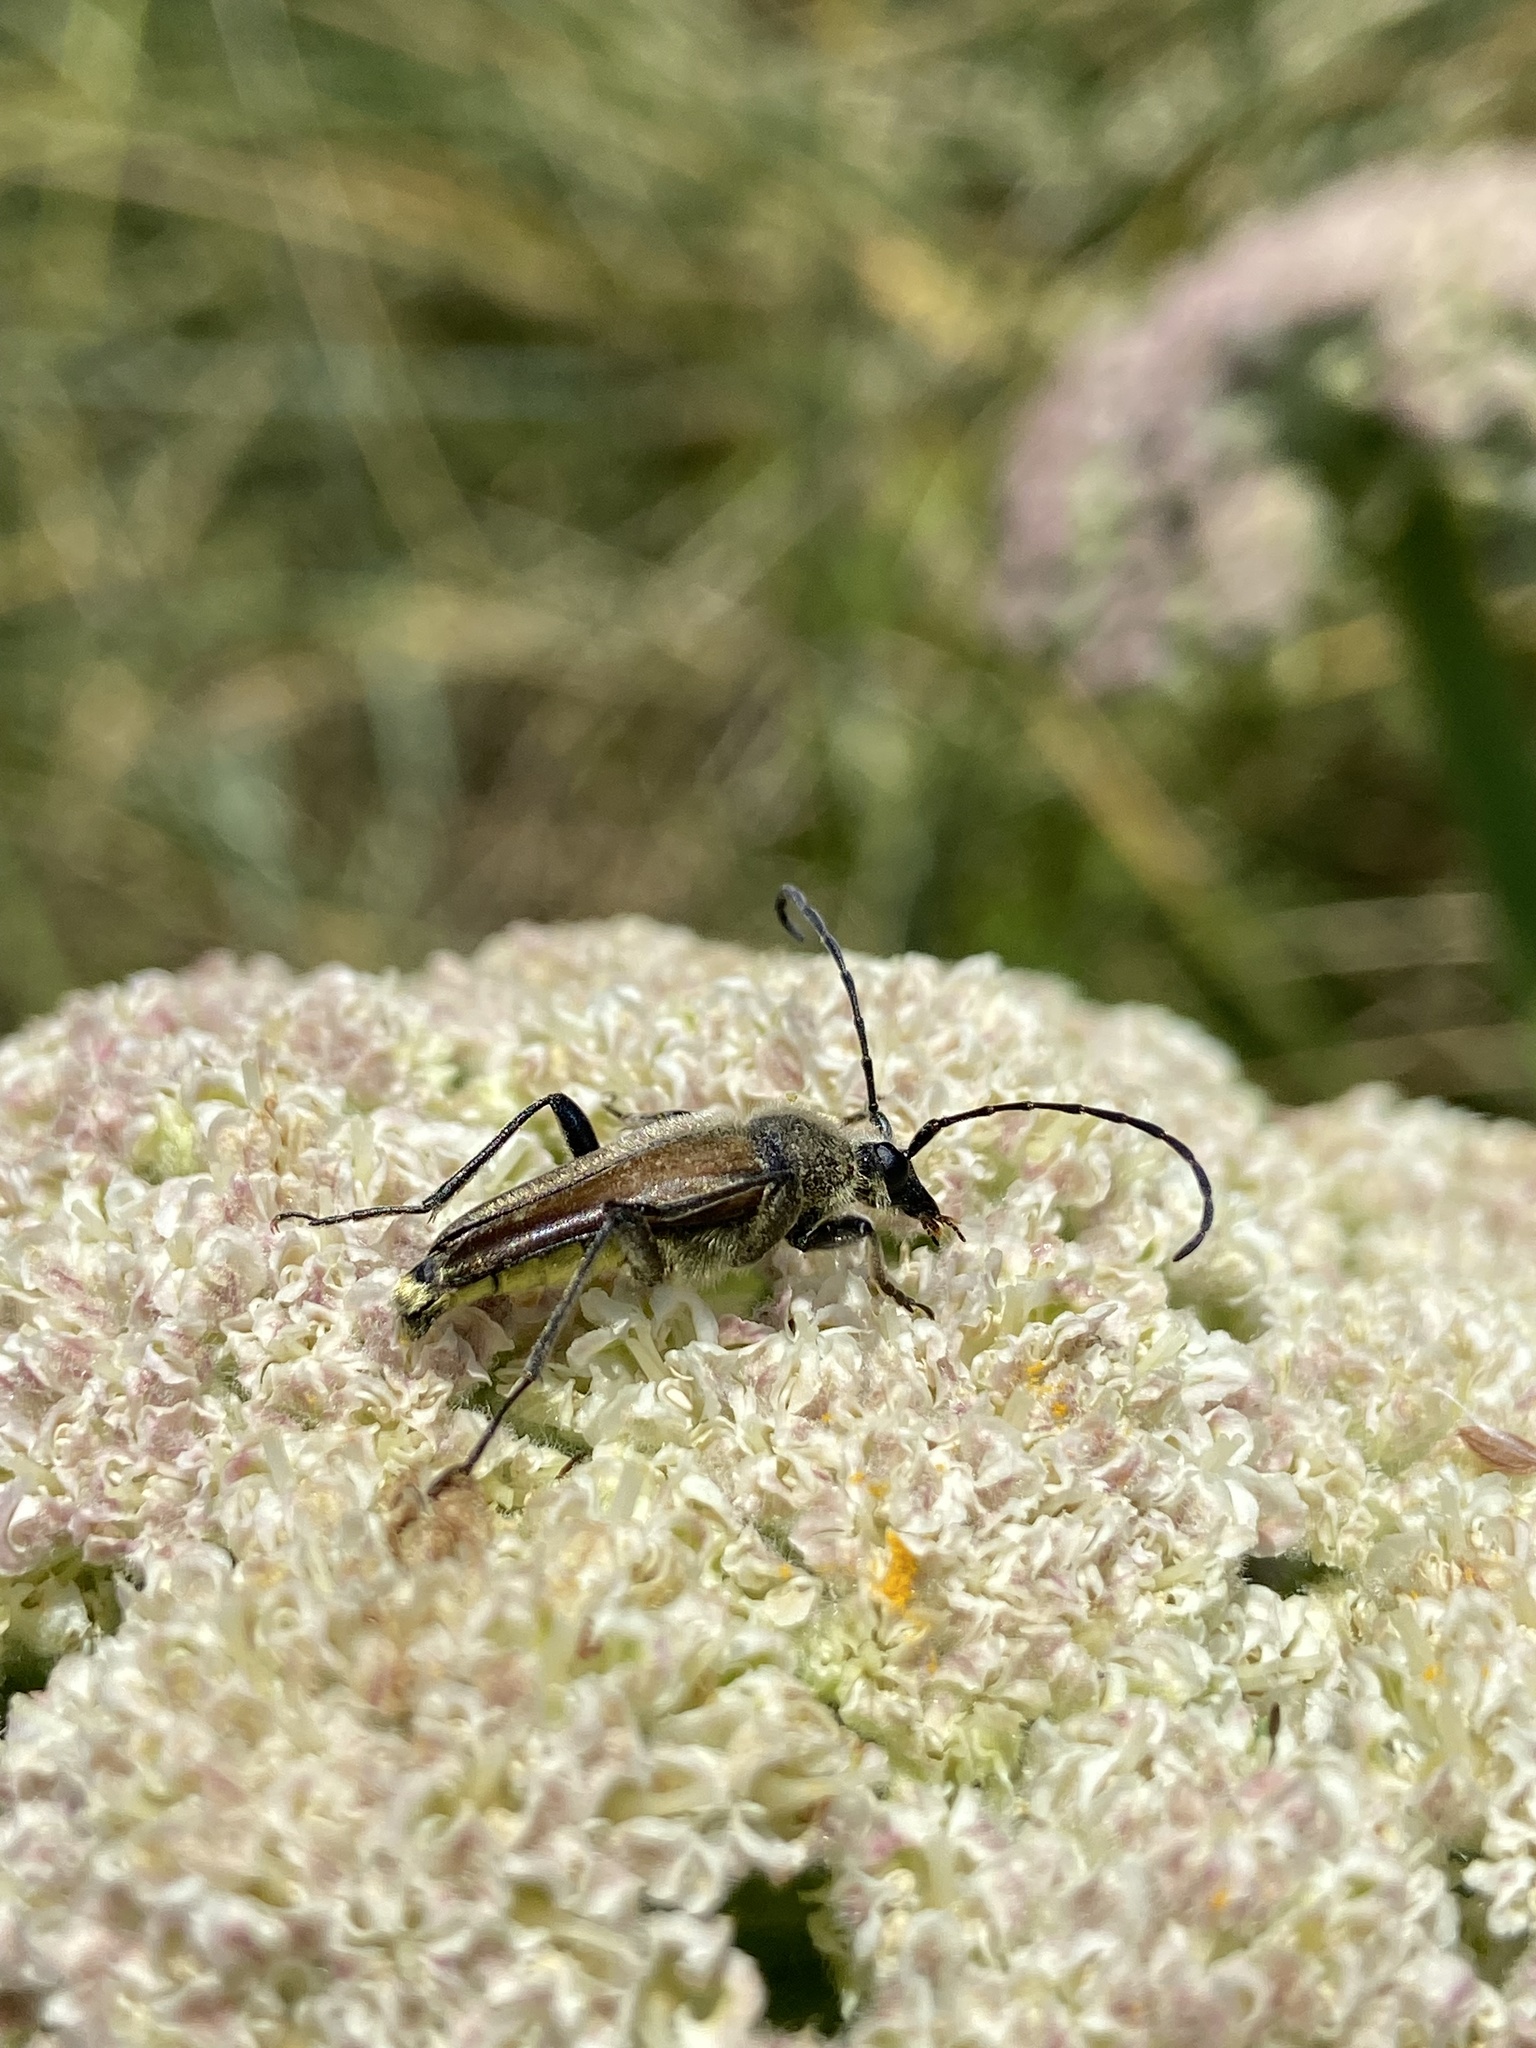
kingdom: Animalia
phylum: Arthropoda
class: Insecta
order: Coleoptera
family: Cerambycidae
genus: Cosmosalia
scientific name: Cosmosalia chrysocoma
